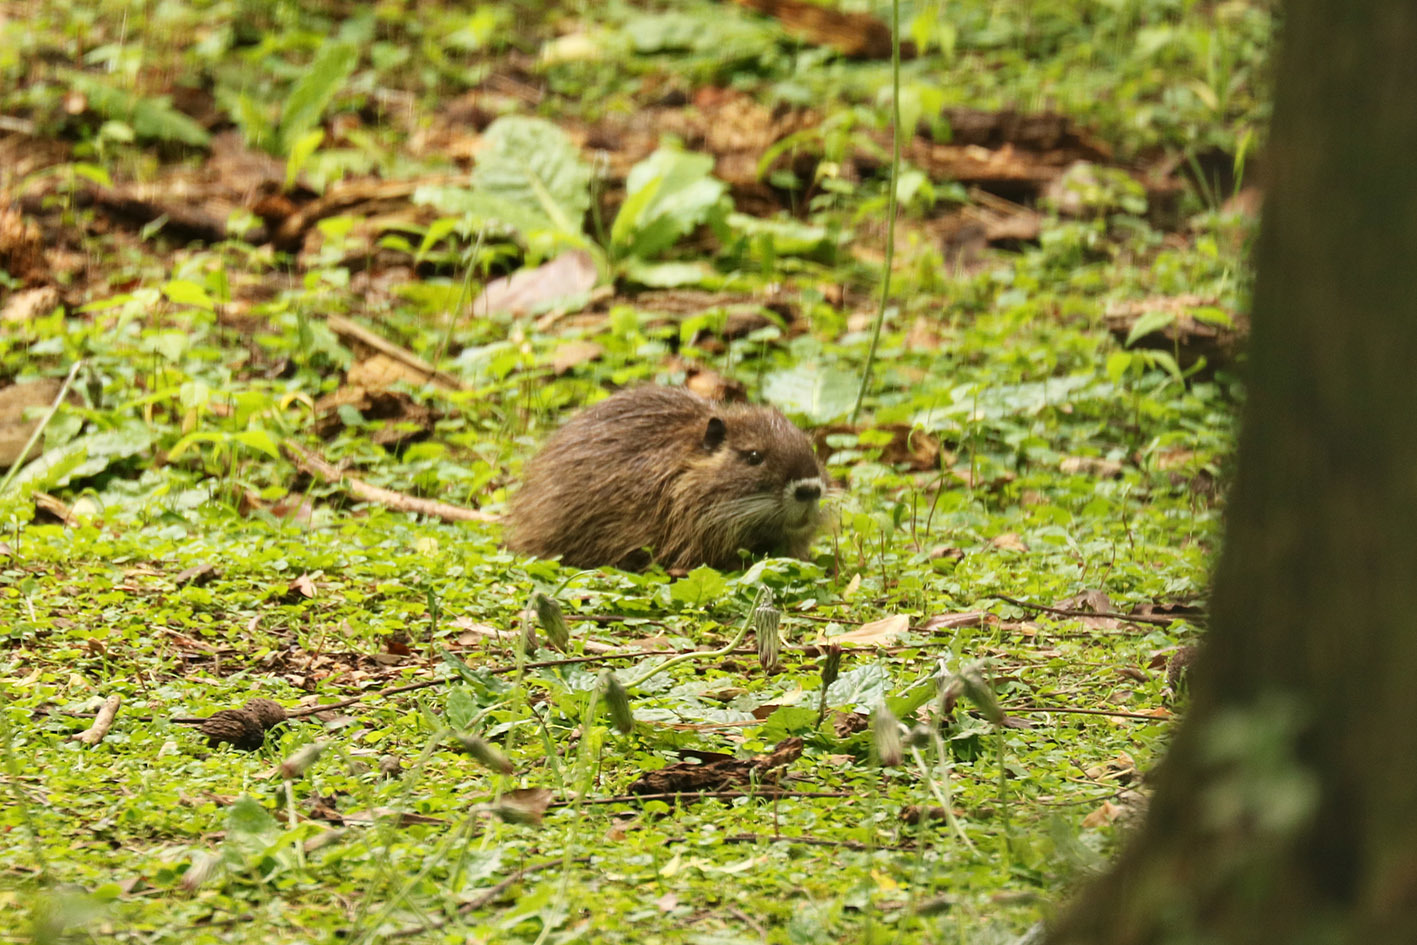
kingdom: Animalia
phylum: Chordata
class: Mammalia
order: Rodentia
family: Myocastoridae
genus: Myocastor
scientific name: Myocastor coypus
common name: Coypu
